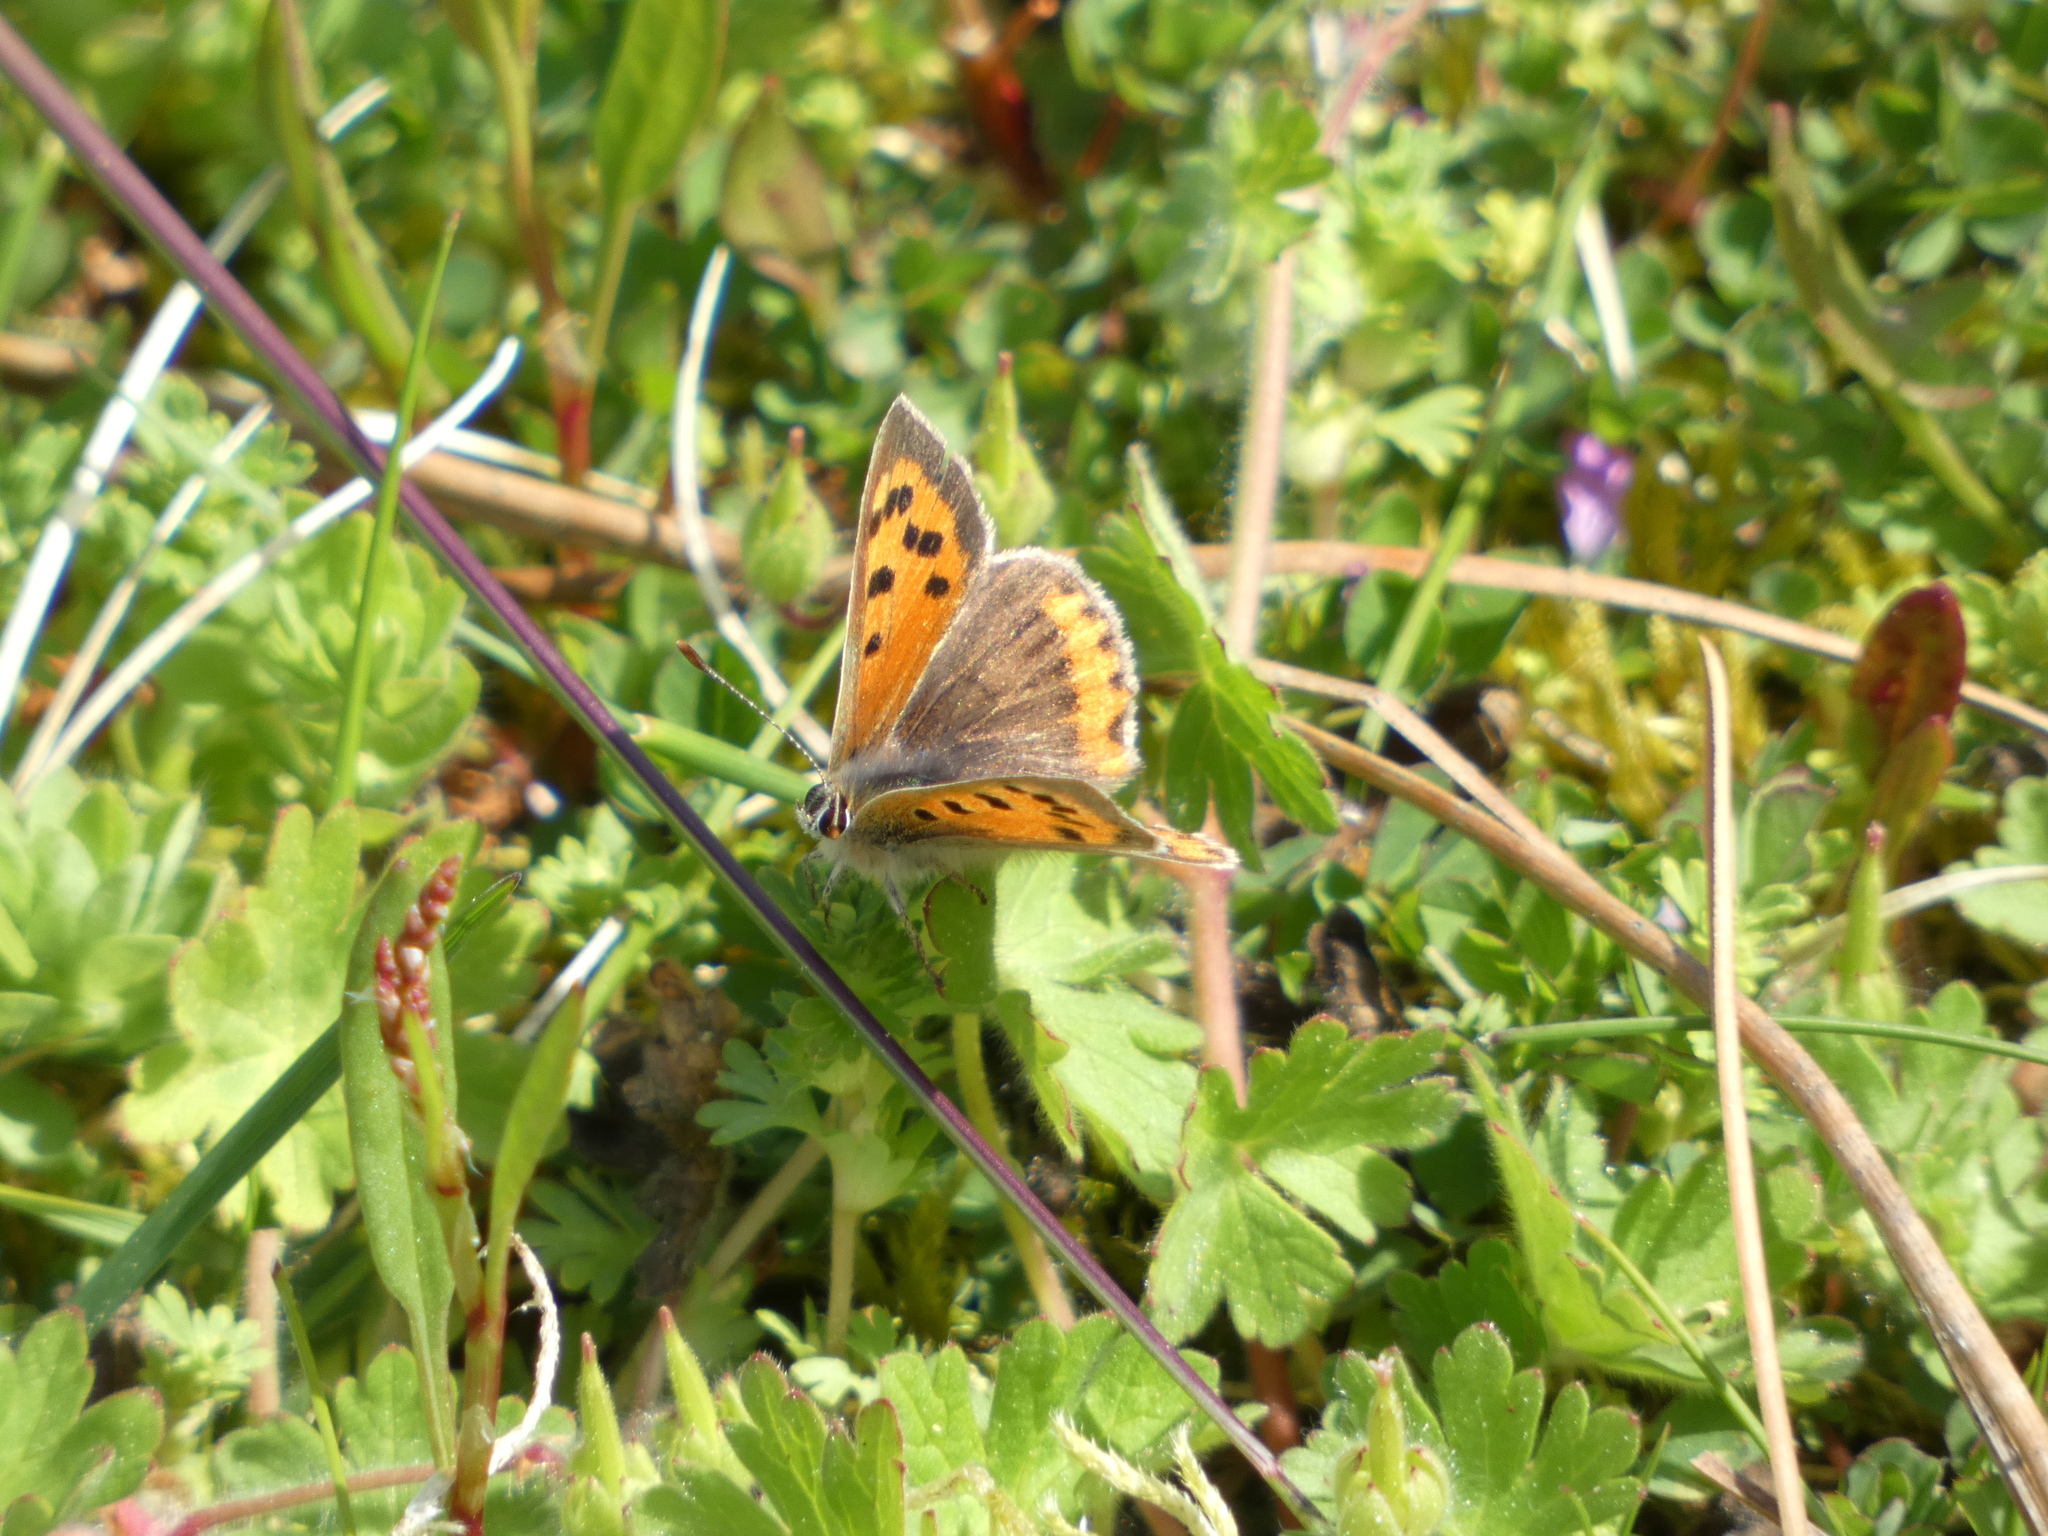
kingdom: Animalia
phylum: Arthropoda
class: Insecta
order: Lepidoptera
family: Lycaenidae
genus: Lycaena
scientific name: Lycaena phlaeas
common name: Small copper
